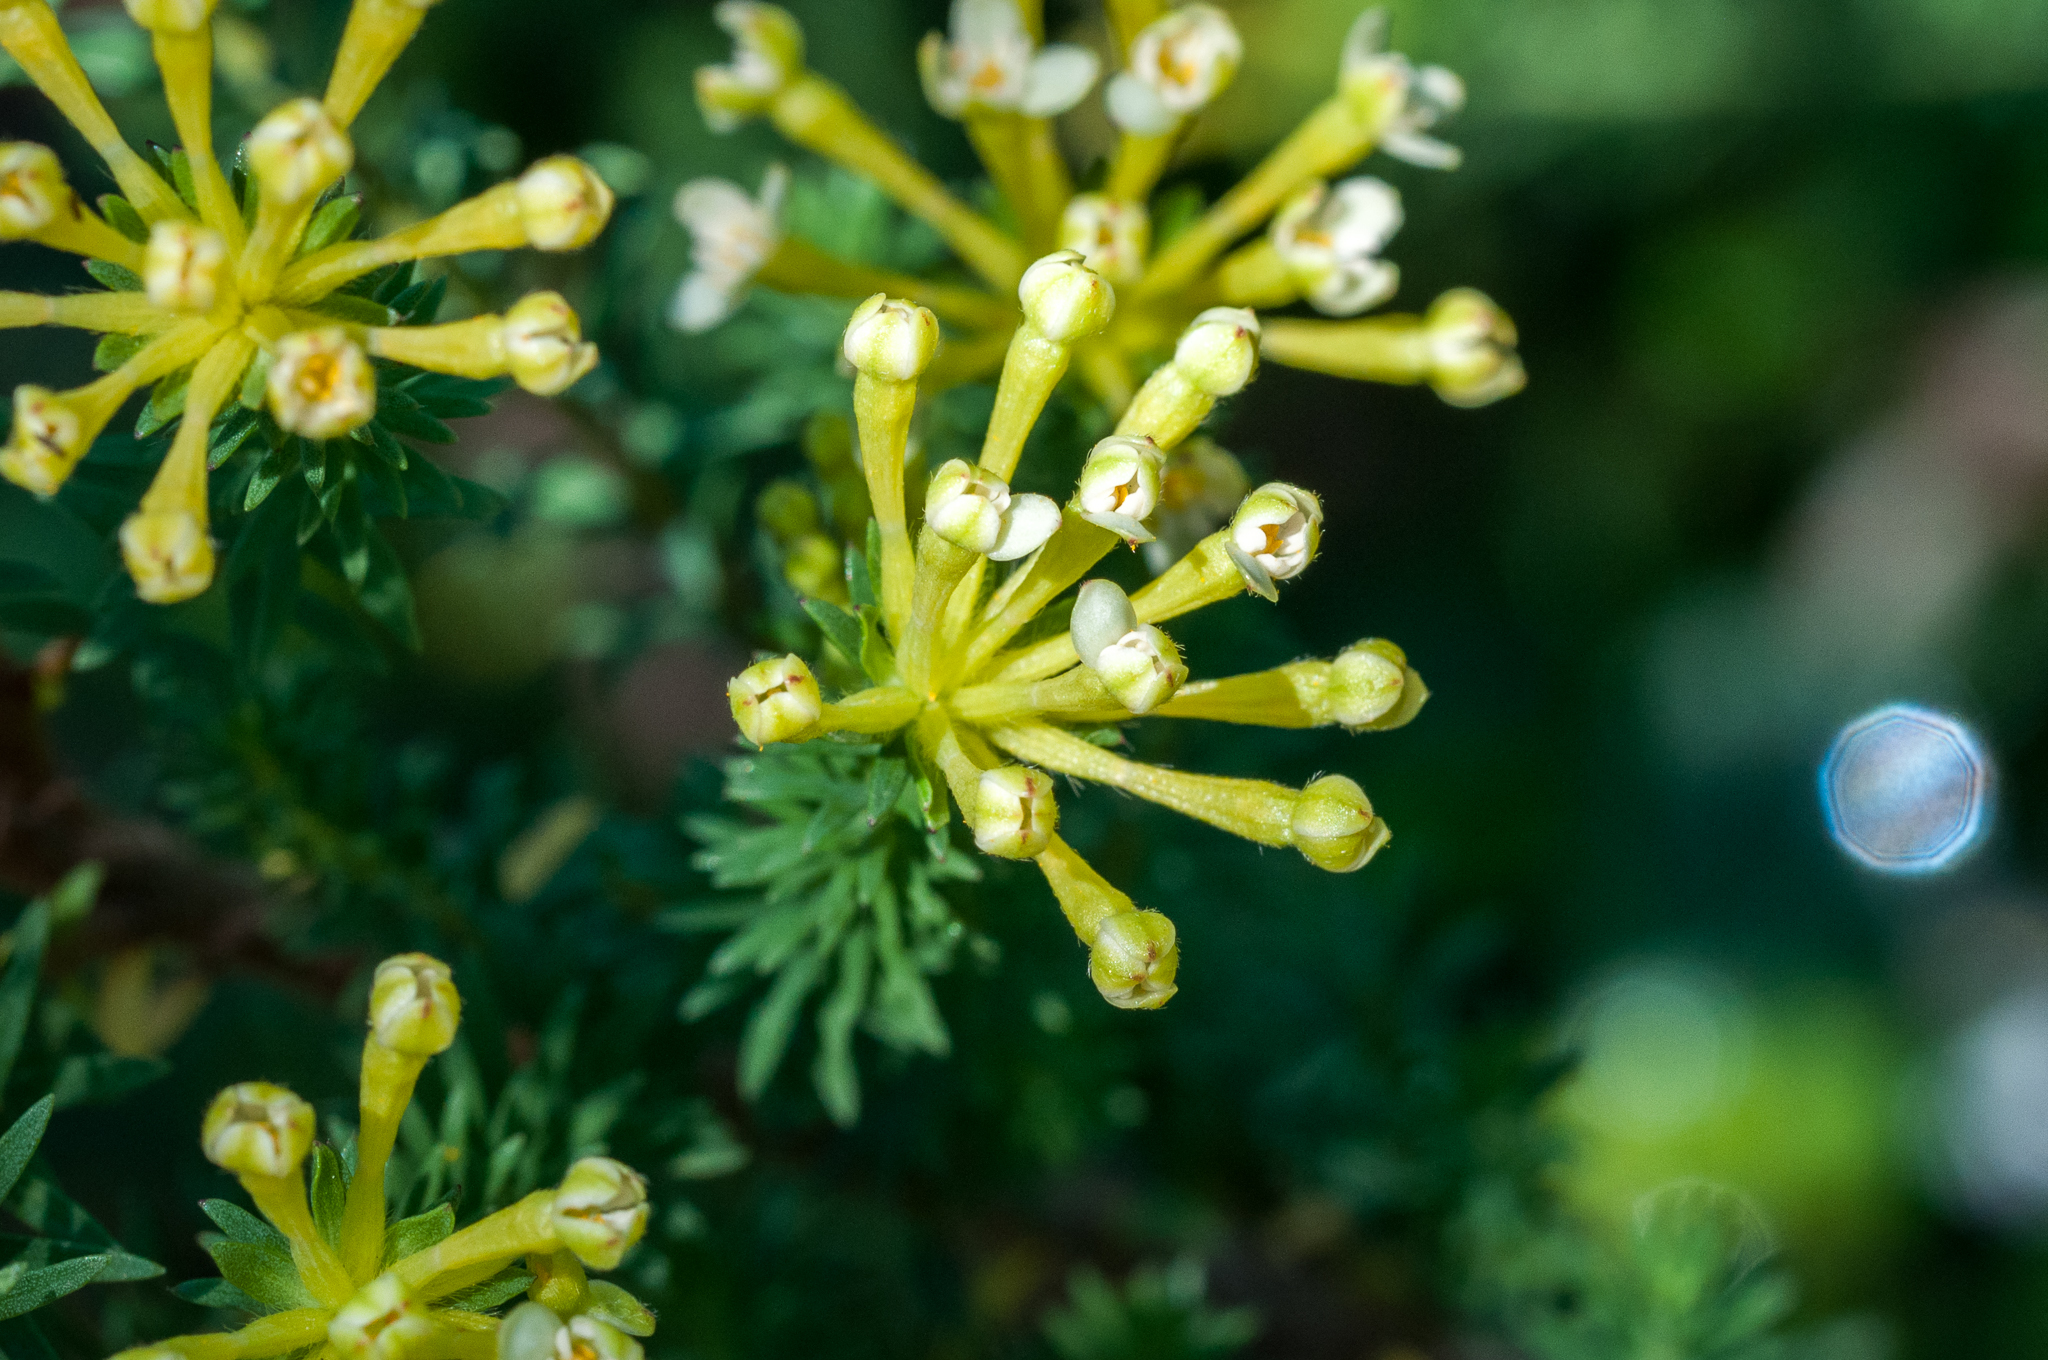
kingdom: Plantae
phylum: Tracheophyta
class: Magnoliopsida
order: Malvales
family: Thymelaeaceae
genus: Gnidia
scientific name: Gnidia squarrosa
